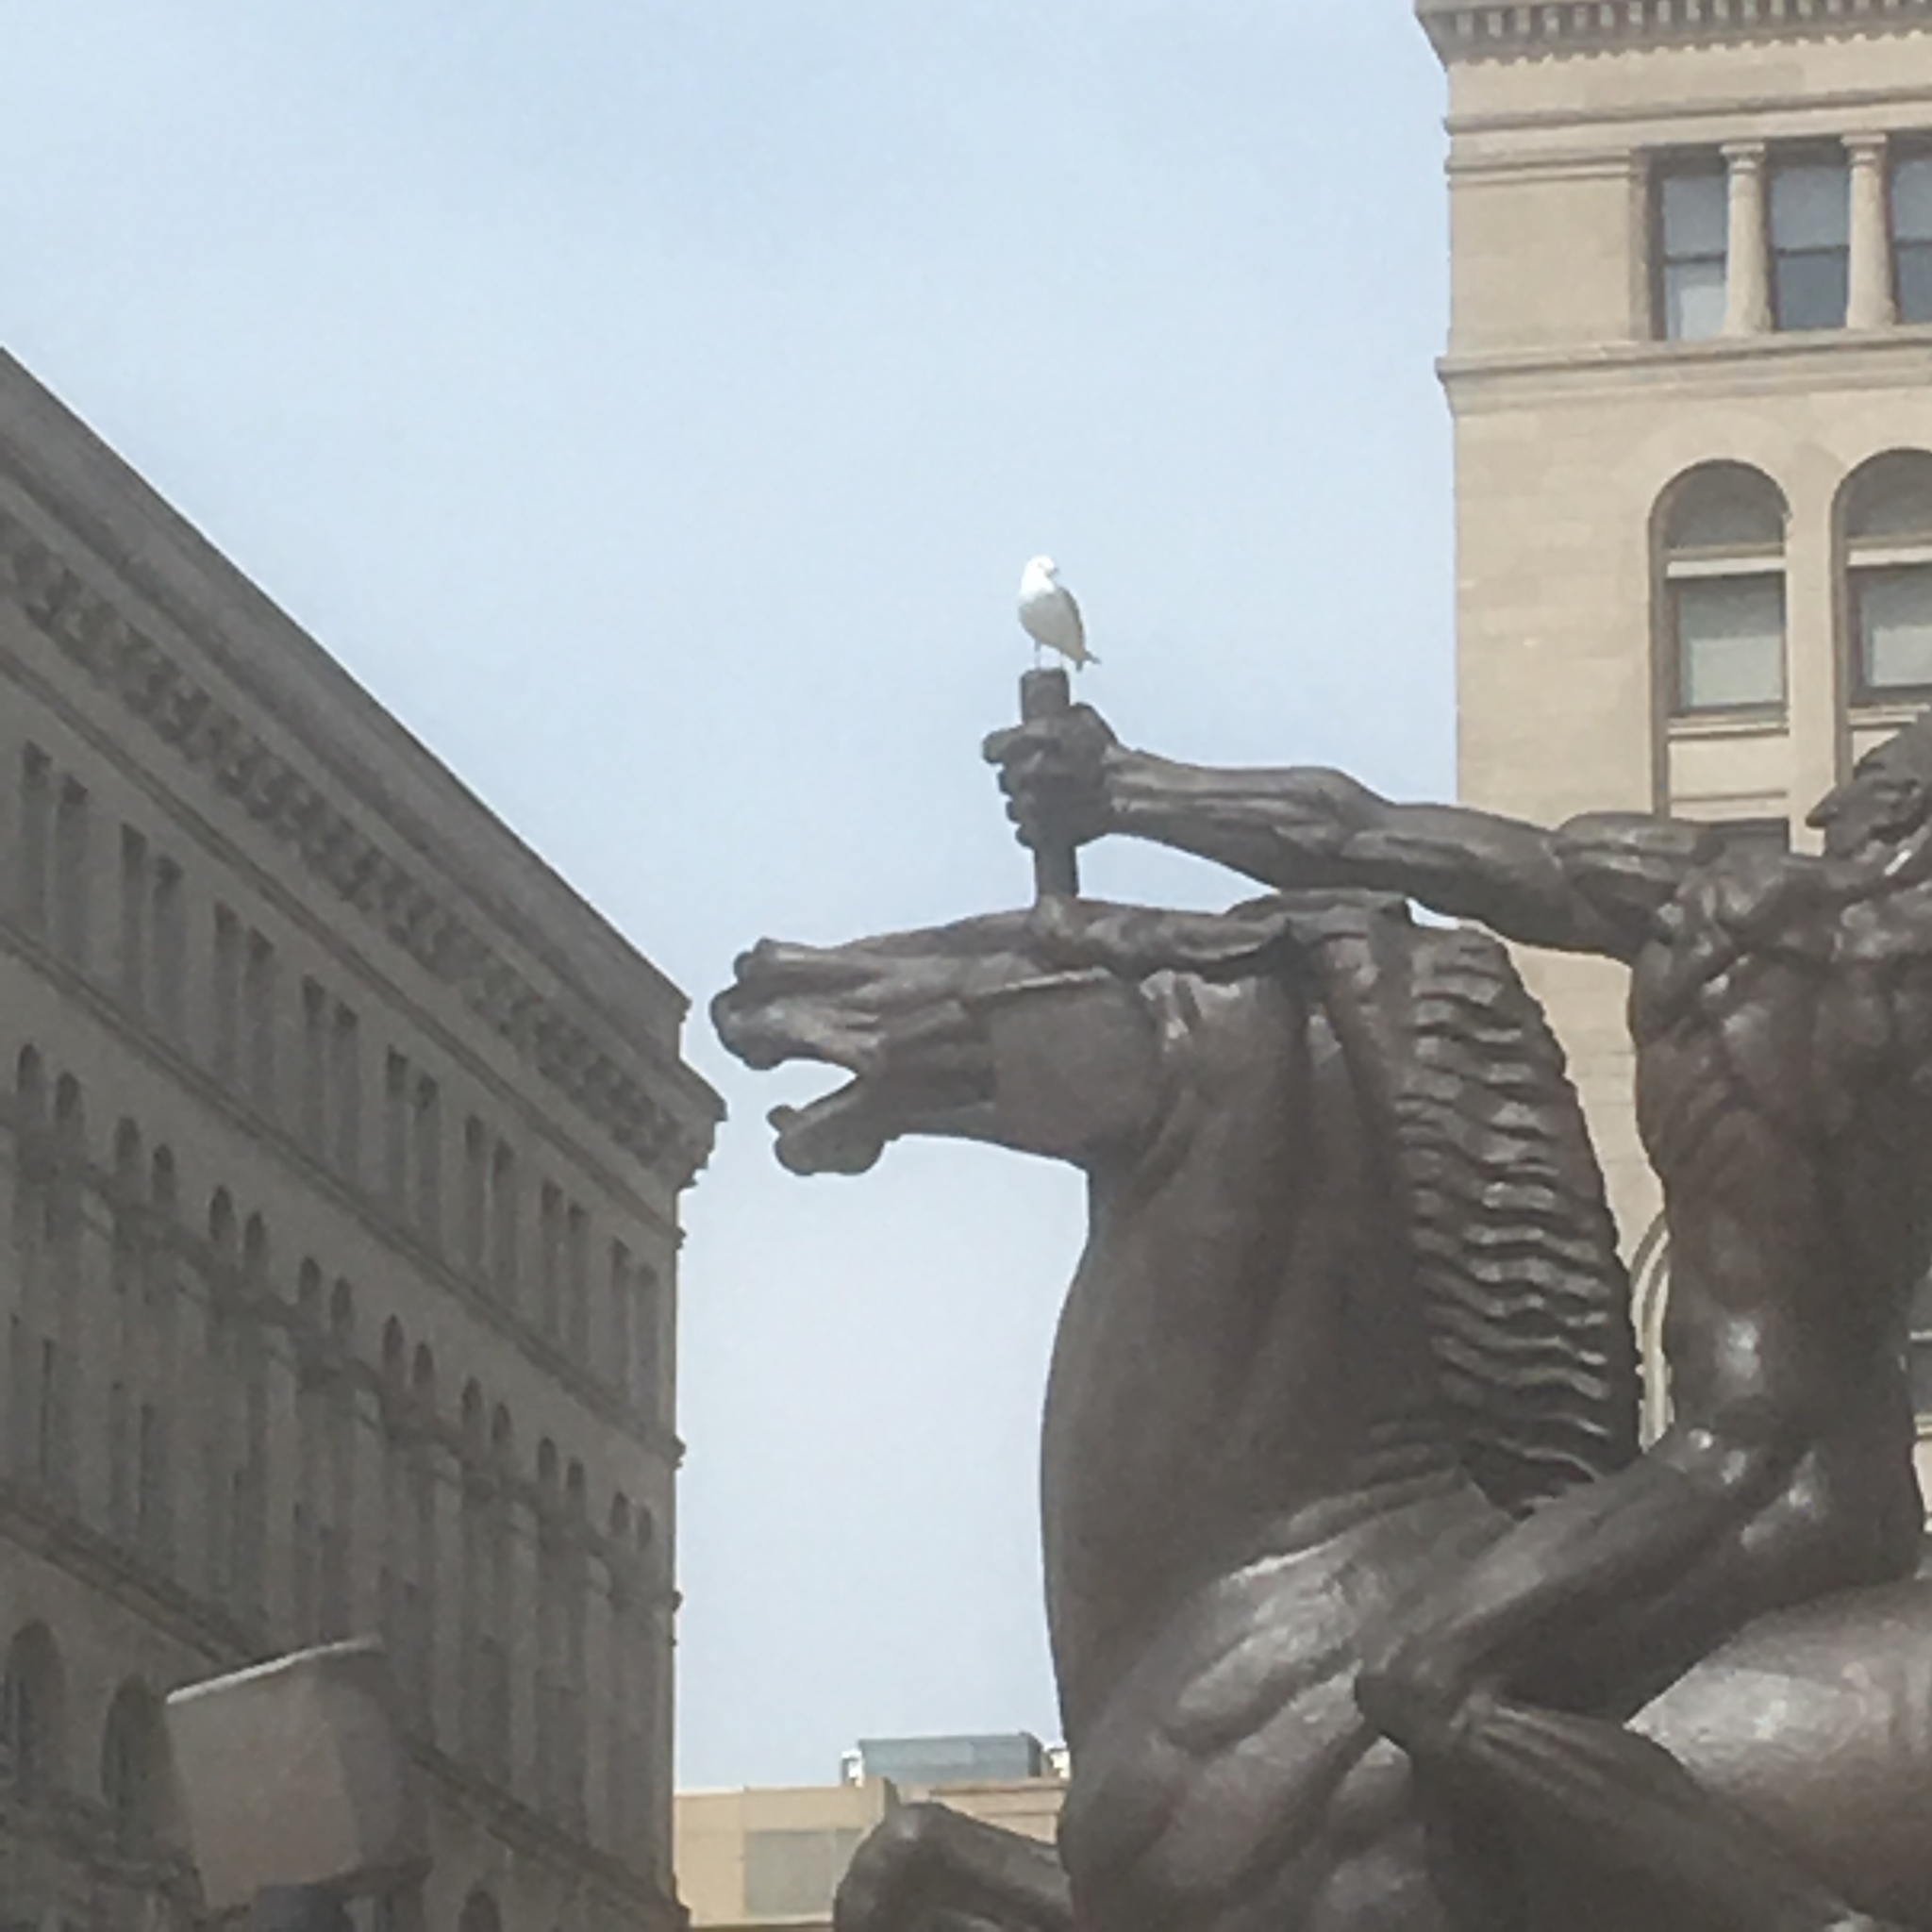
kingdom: Animalia
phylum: Chordata
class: Aves
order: Charadriiformes
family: Laridae
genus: Larus
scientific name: Larus delawarensis
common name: Ring-billed gull
